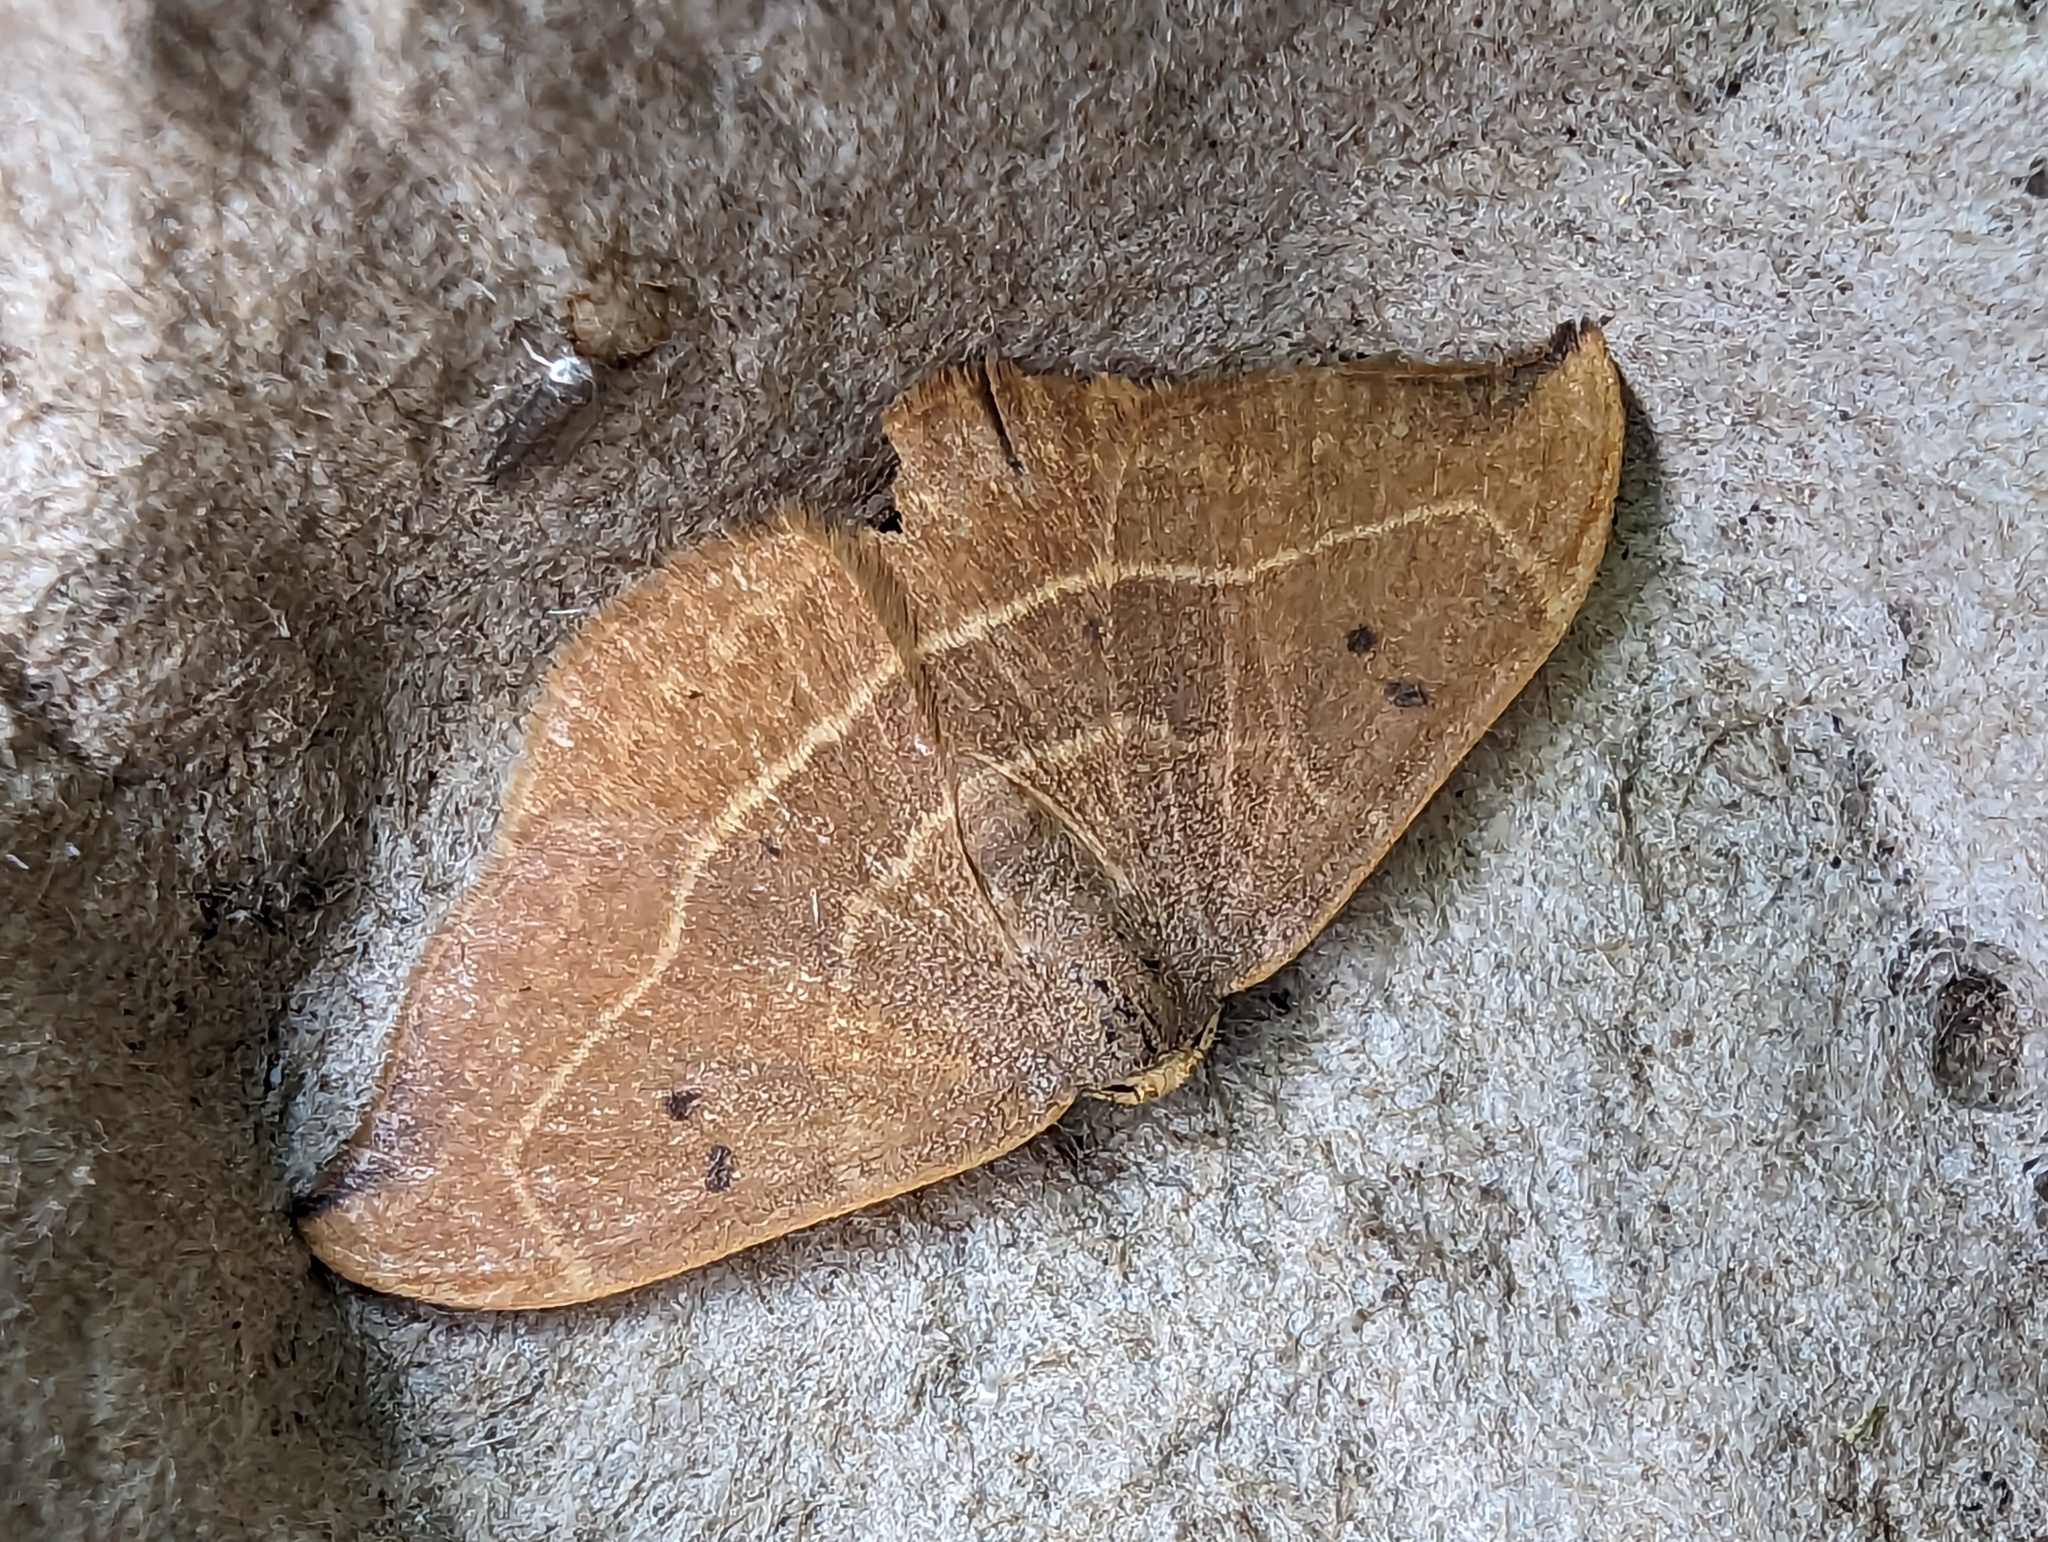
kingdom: Animalia
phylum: Arthropoda
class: Insecta
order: Lepidoptera
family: Drepanidae
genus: Watsonalla
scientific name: Watsonalla binaria
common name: Oak hook-tip
